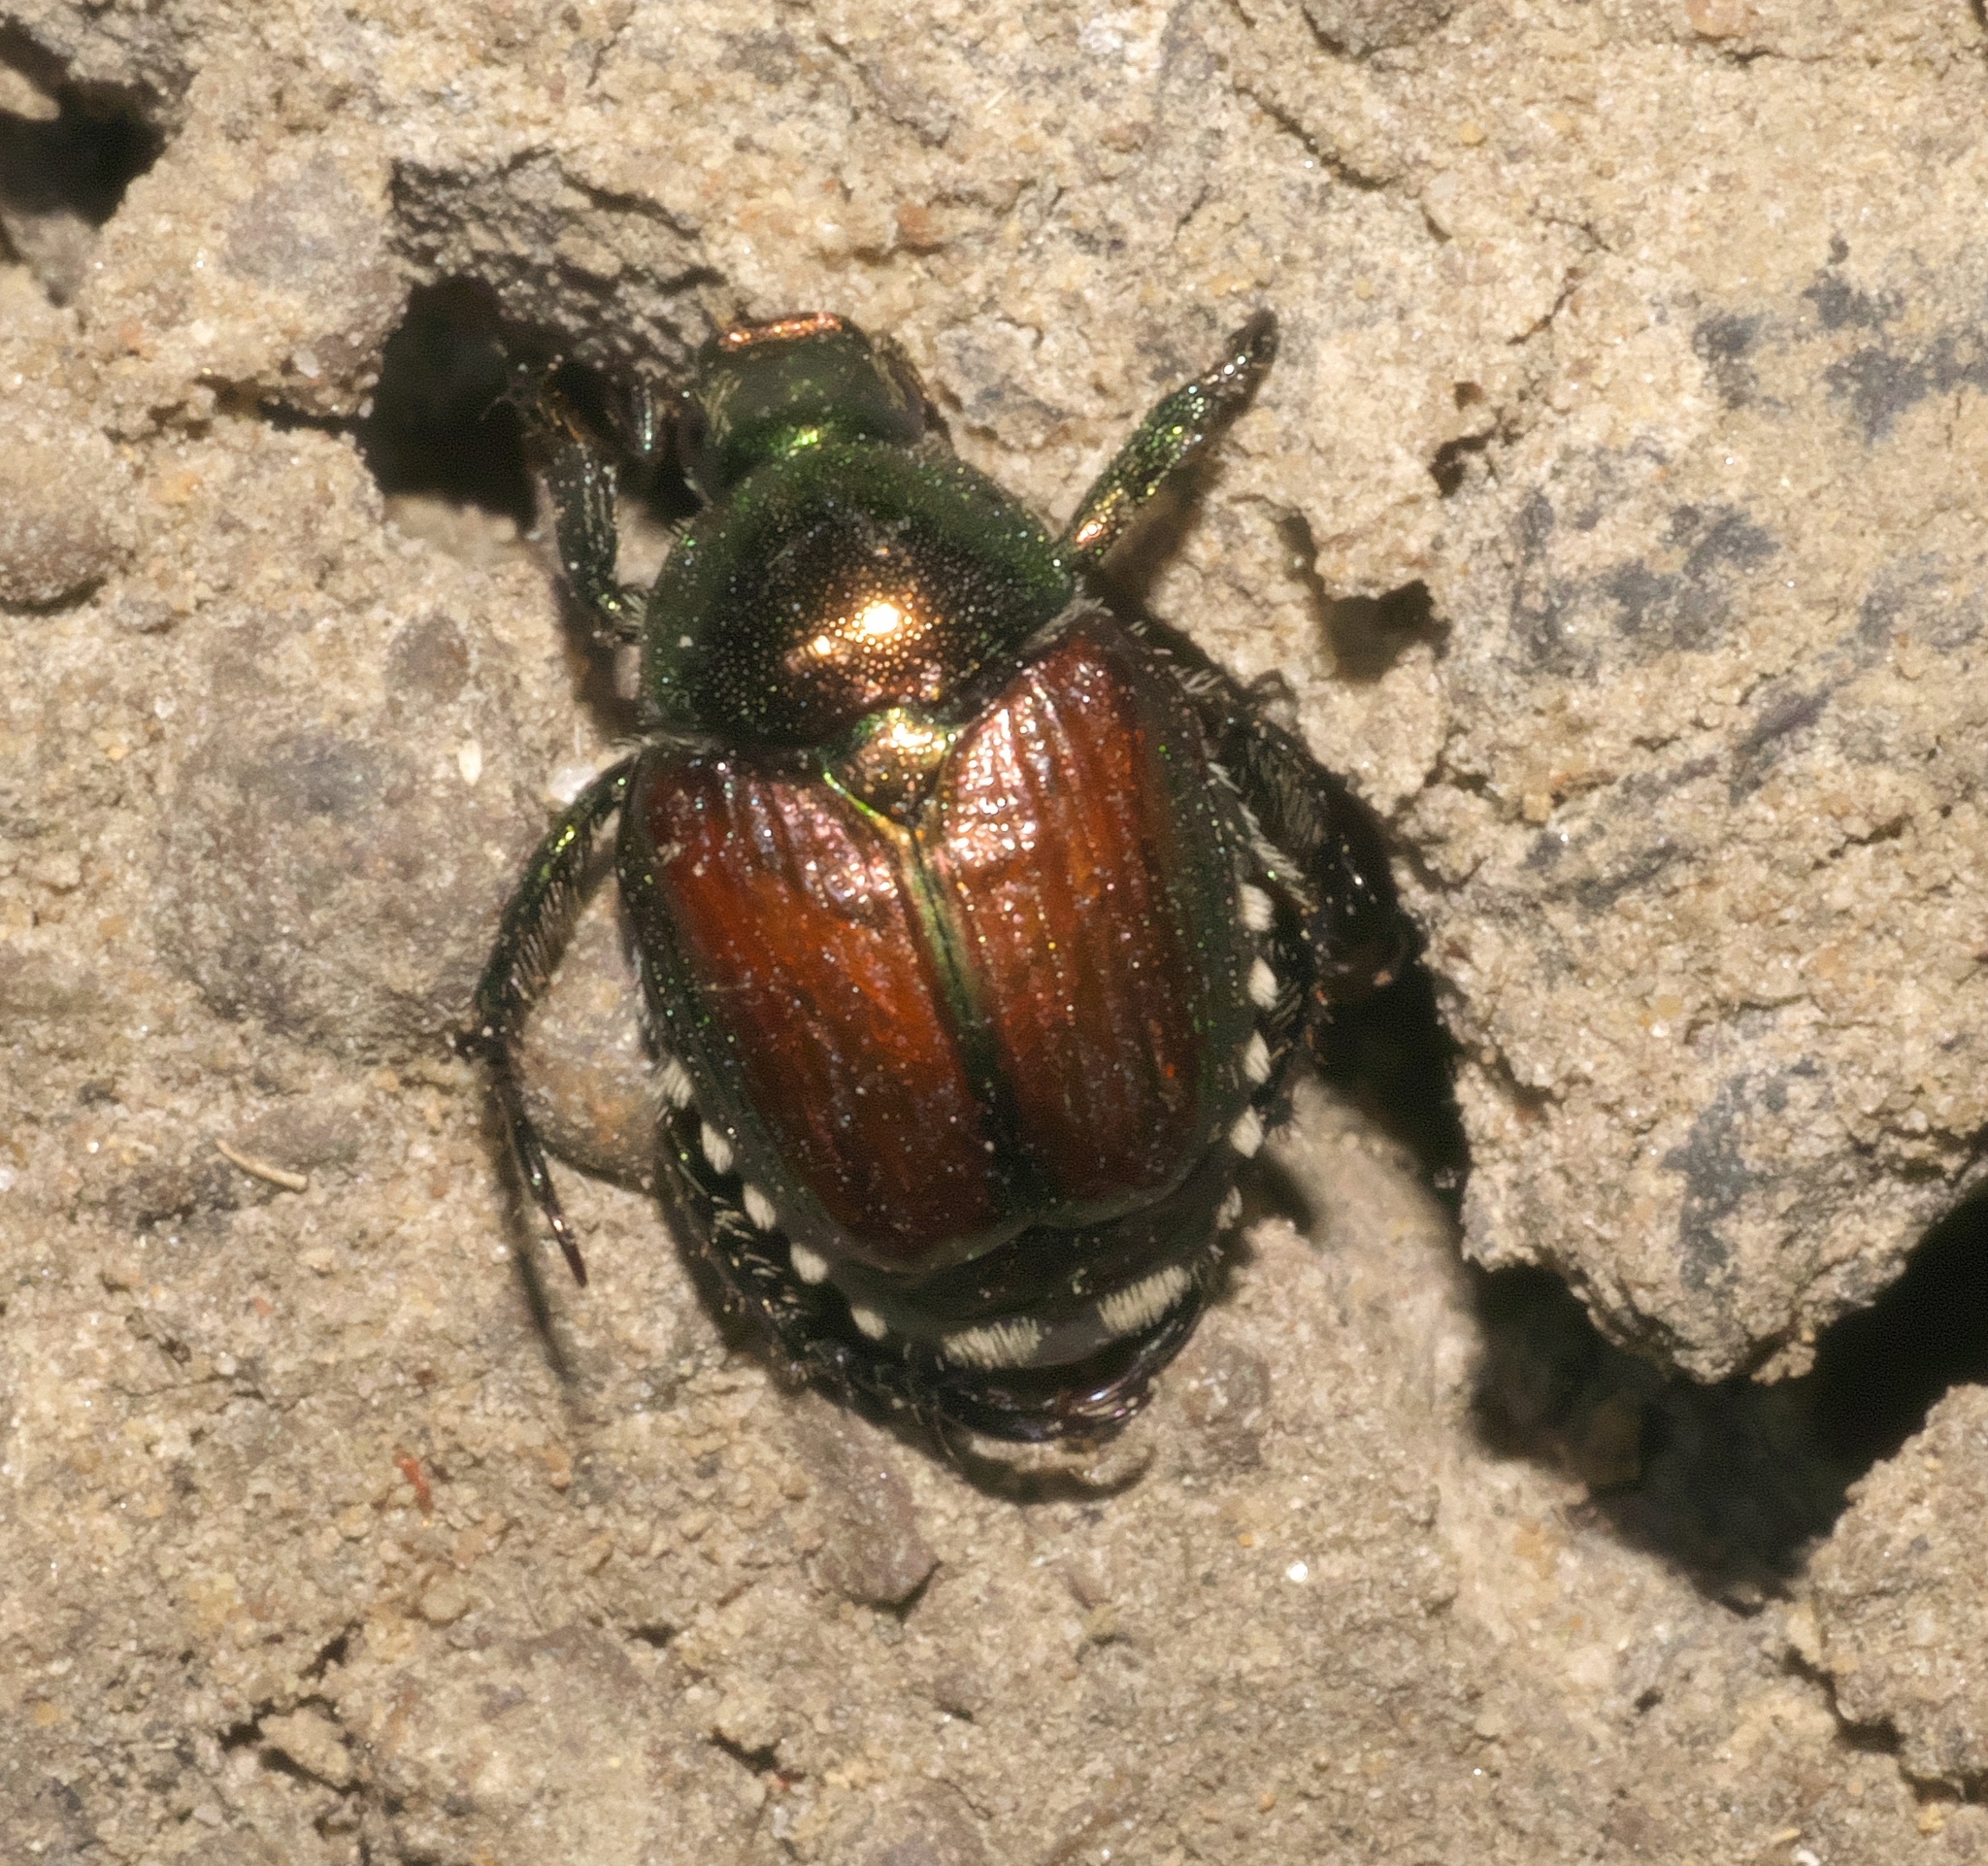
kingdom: Animalia
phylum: Arthropoda
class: Insecta
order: Coleoptera
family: Scarabaeidae
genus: Popillia
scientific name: Popillia japonica
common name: Japanese beetle
